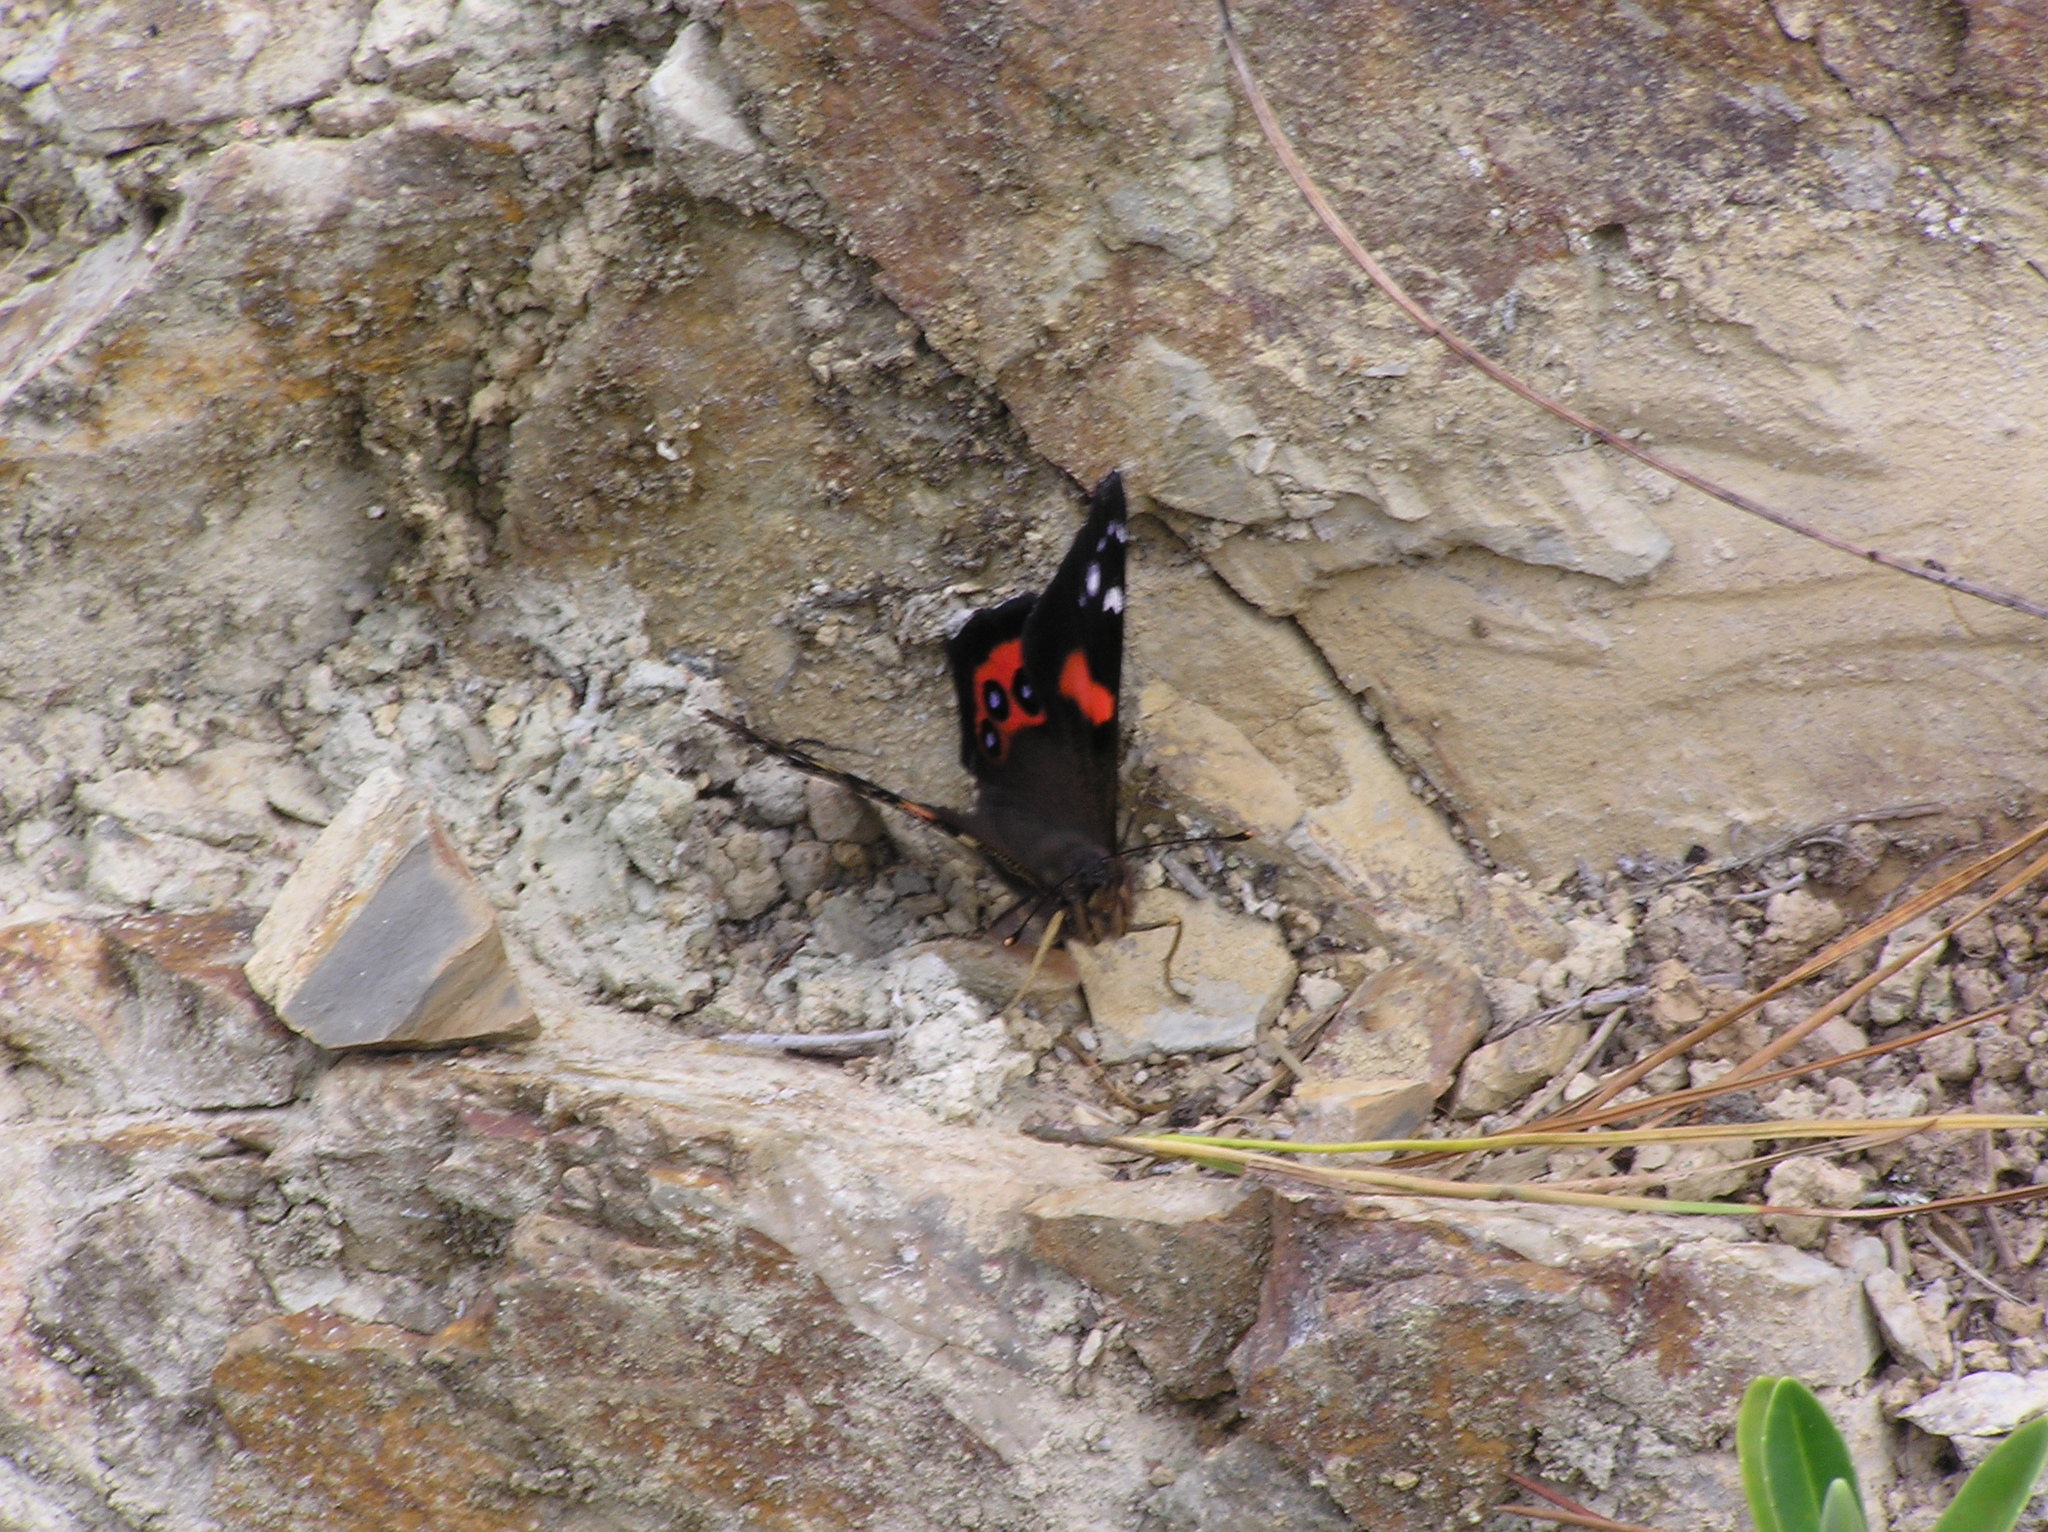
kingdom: Animalia
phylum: Arthropoda
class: Insecta
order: Lepidoptera
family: Nymphalidae
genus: Vanessa
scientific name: Vanessa gonerilla
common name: New zealand red admiral
